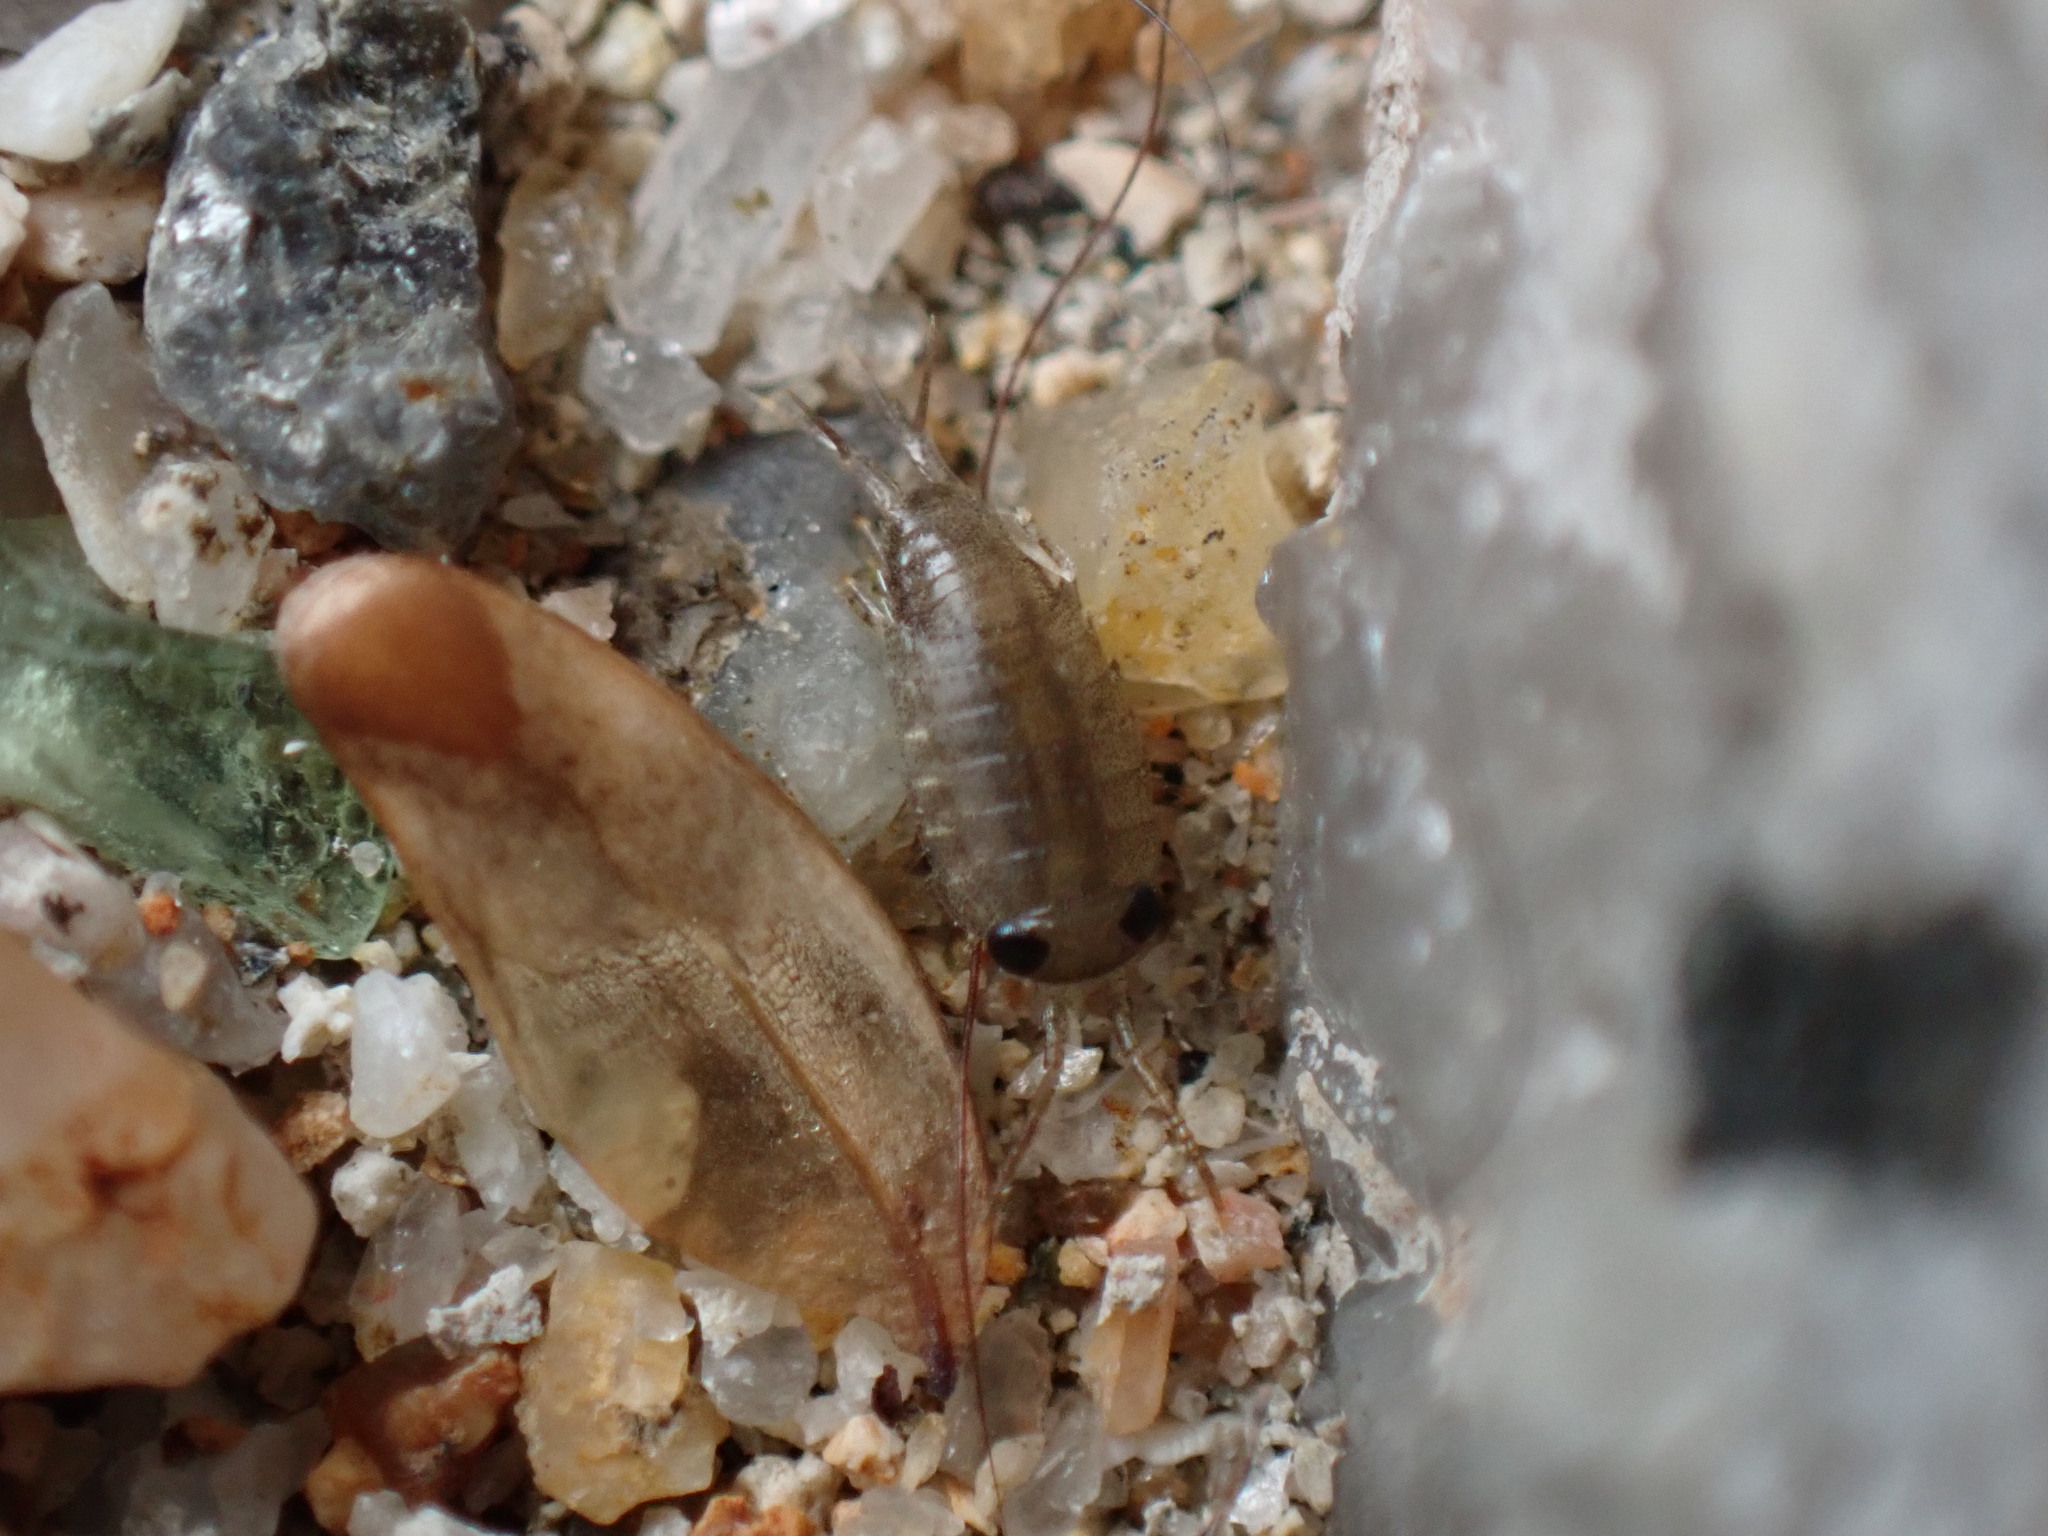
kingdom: Animalia
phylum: Arthropoda
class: Malacostraca
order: Isopoda
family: Ligiidae
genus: Ligia
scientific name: Ligia exotica
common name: Wharf roach
